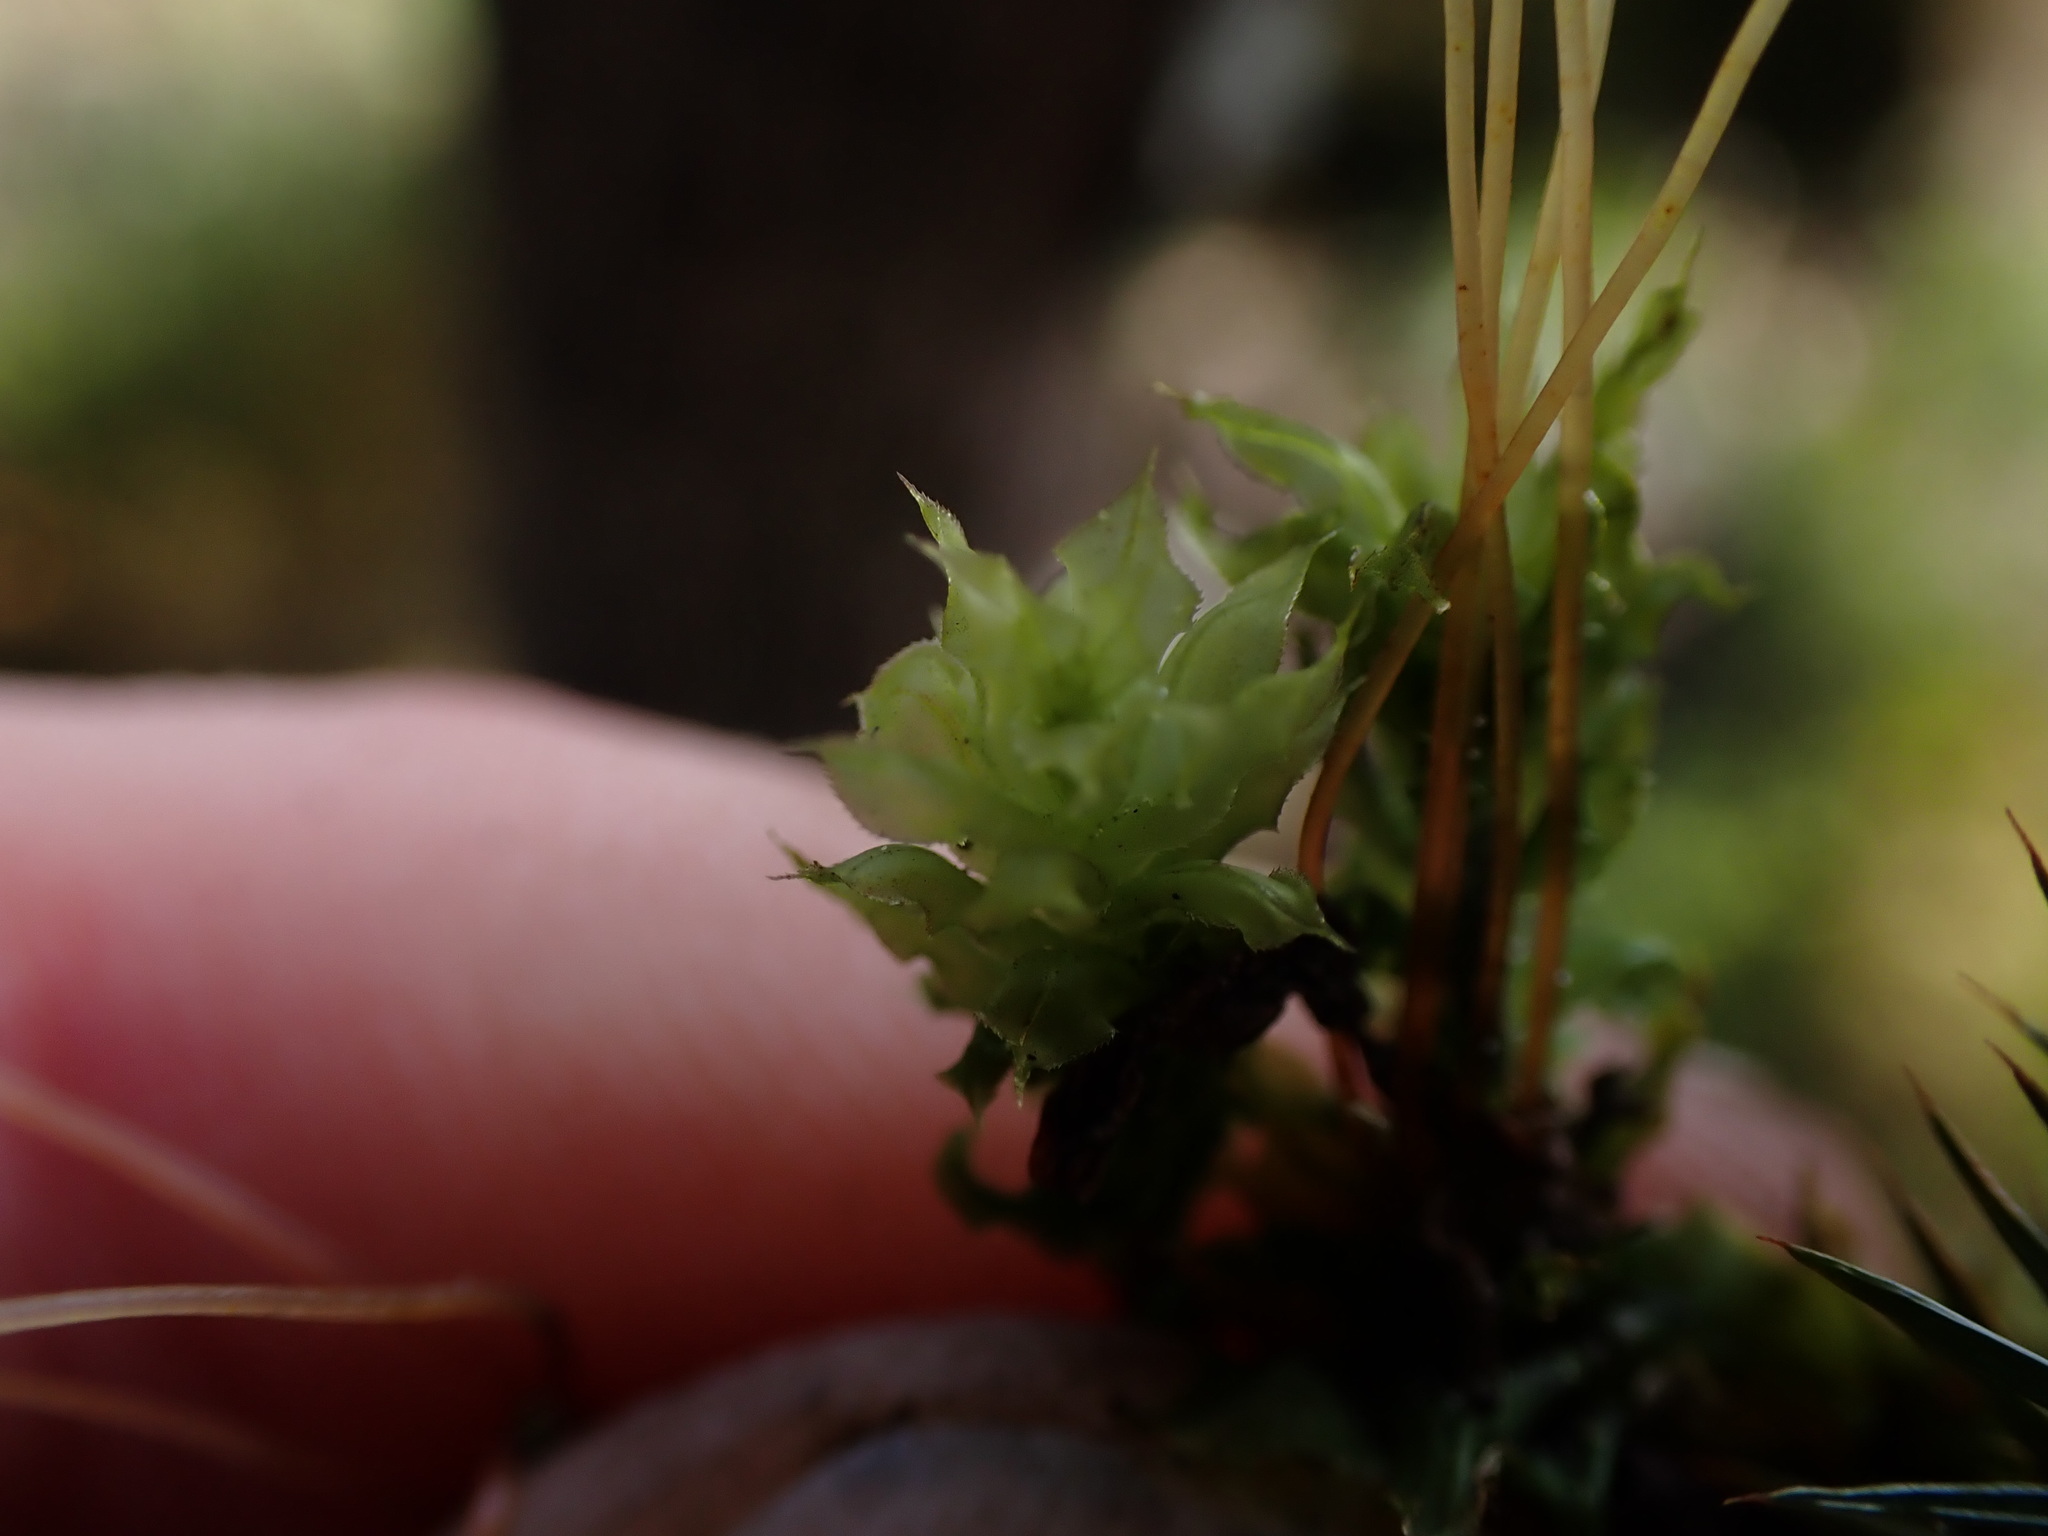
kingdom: Plantae
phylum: Bryophyta
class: Bryopsida
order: Bryales
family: Mniaceae
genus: Plagiomnium
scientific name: Plagiomnium venustum
